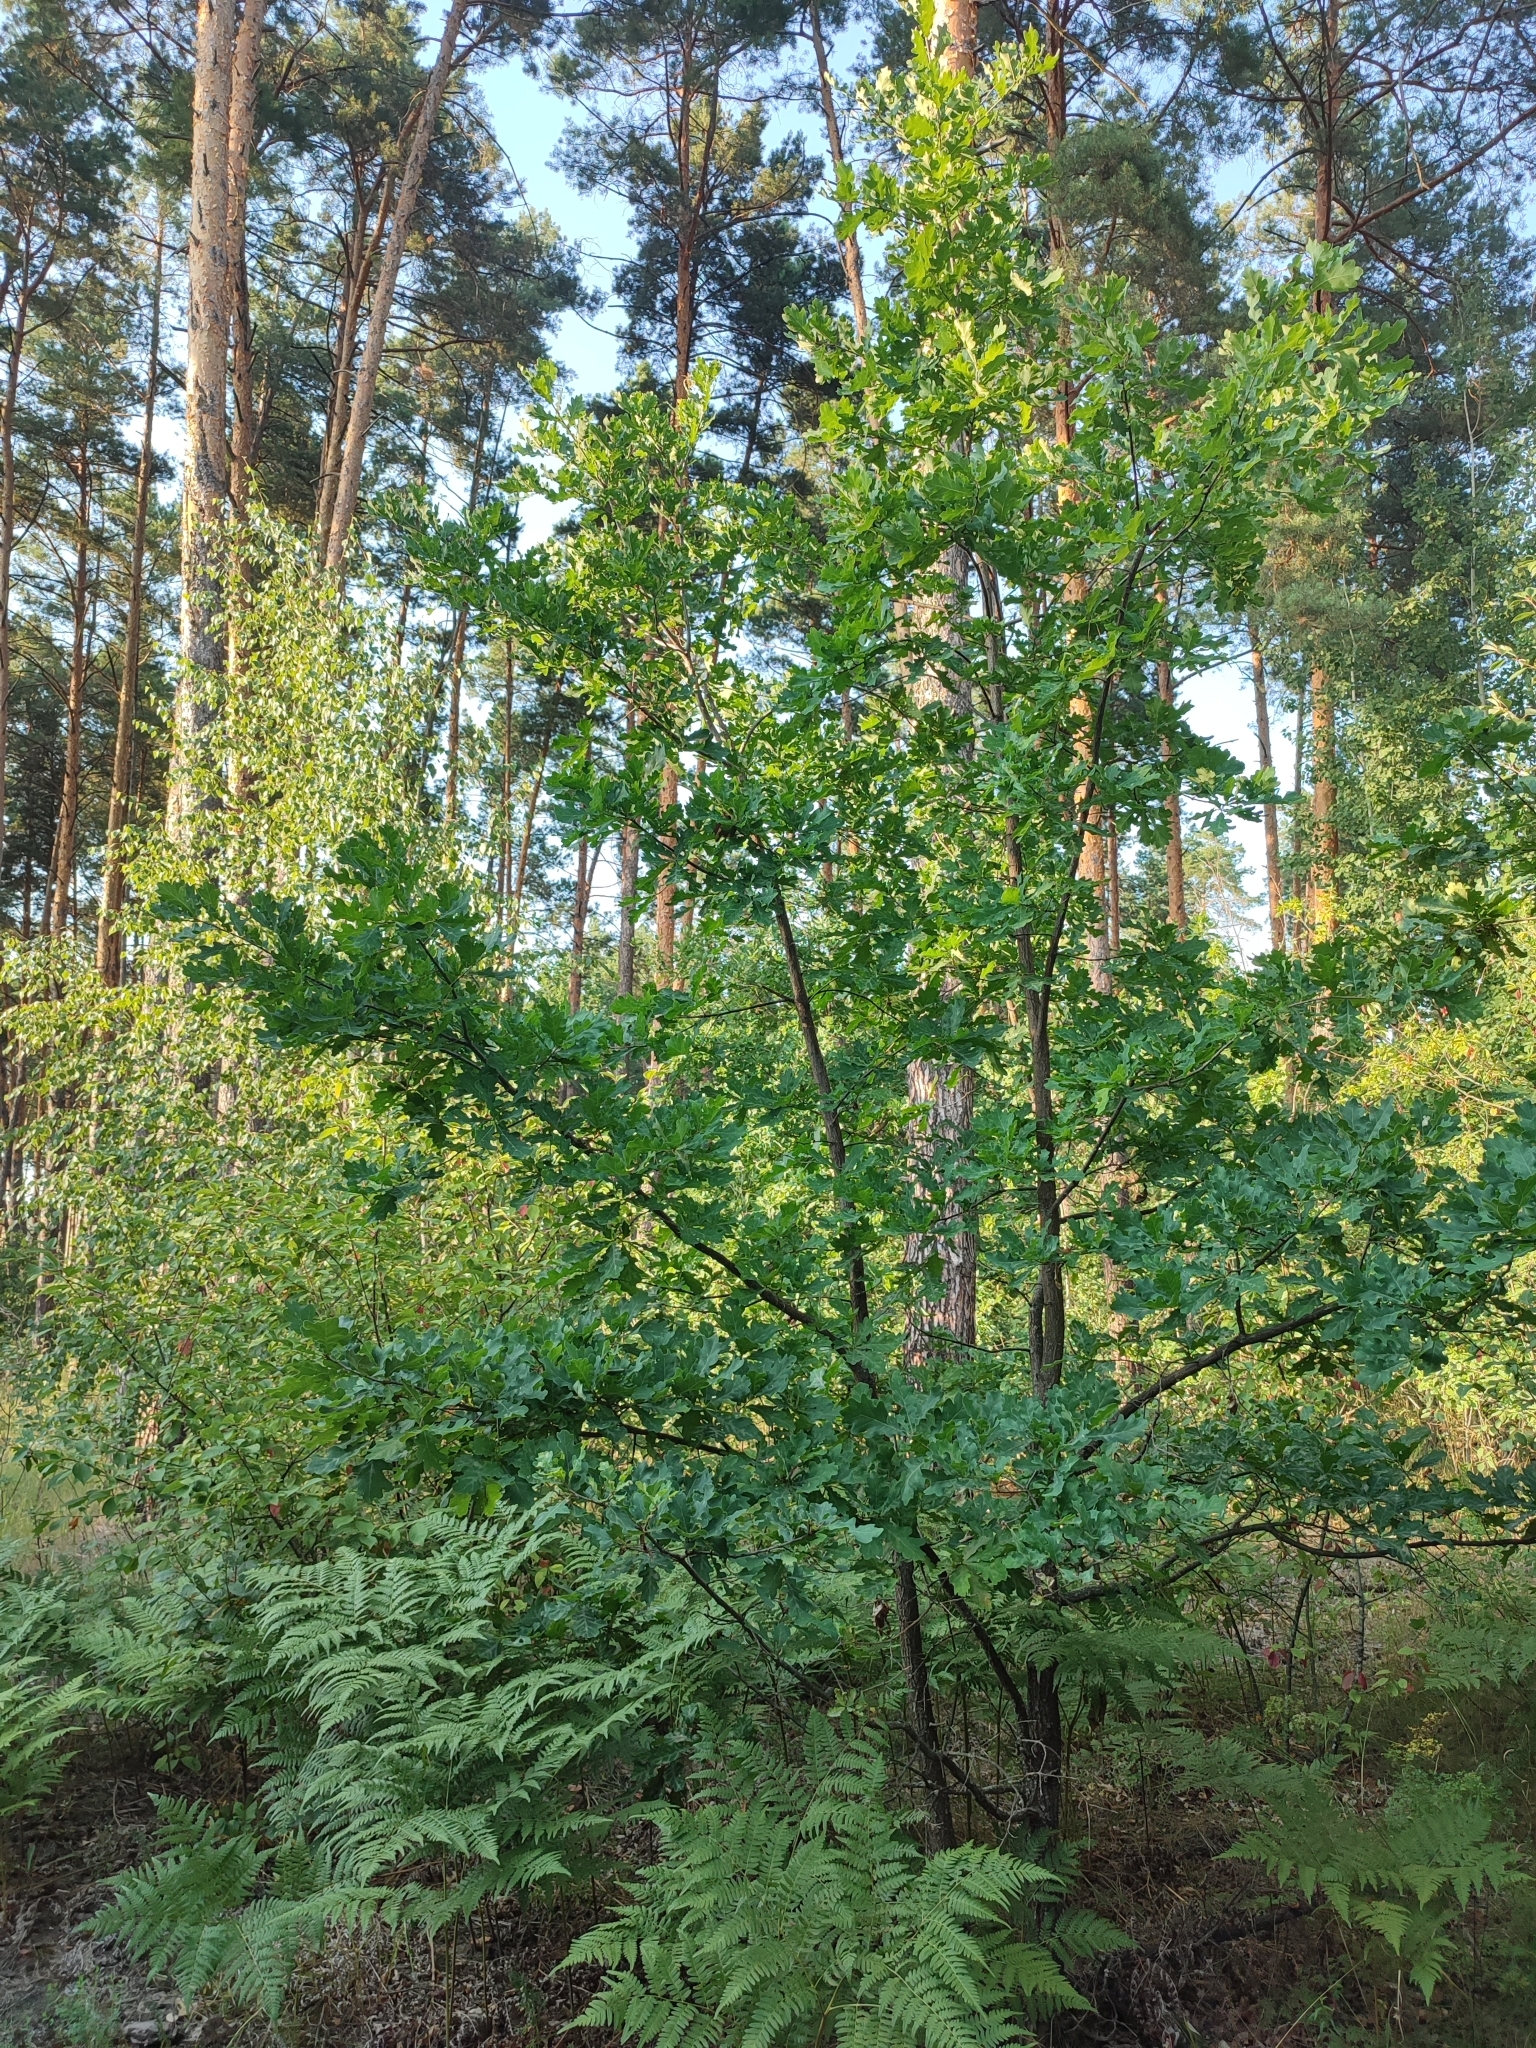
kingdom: Plantae
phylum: Tracheophyta
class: Magnoliopsida
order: Fagales
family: Fagaceae
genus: Quercus
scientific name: Quercus robur
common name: Pedunculate oak
